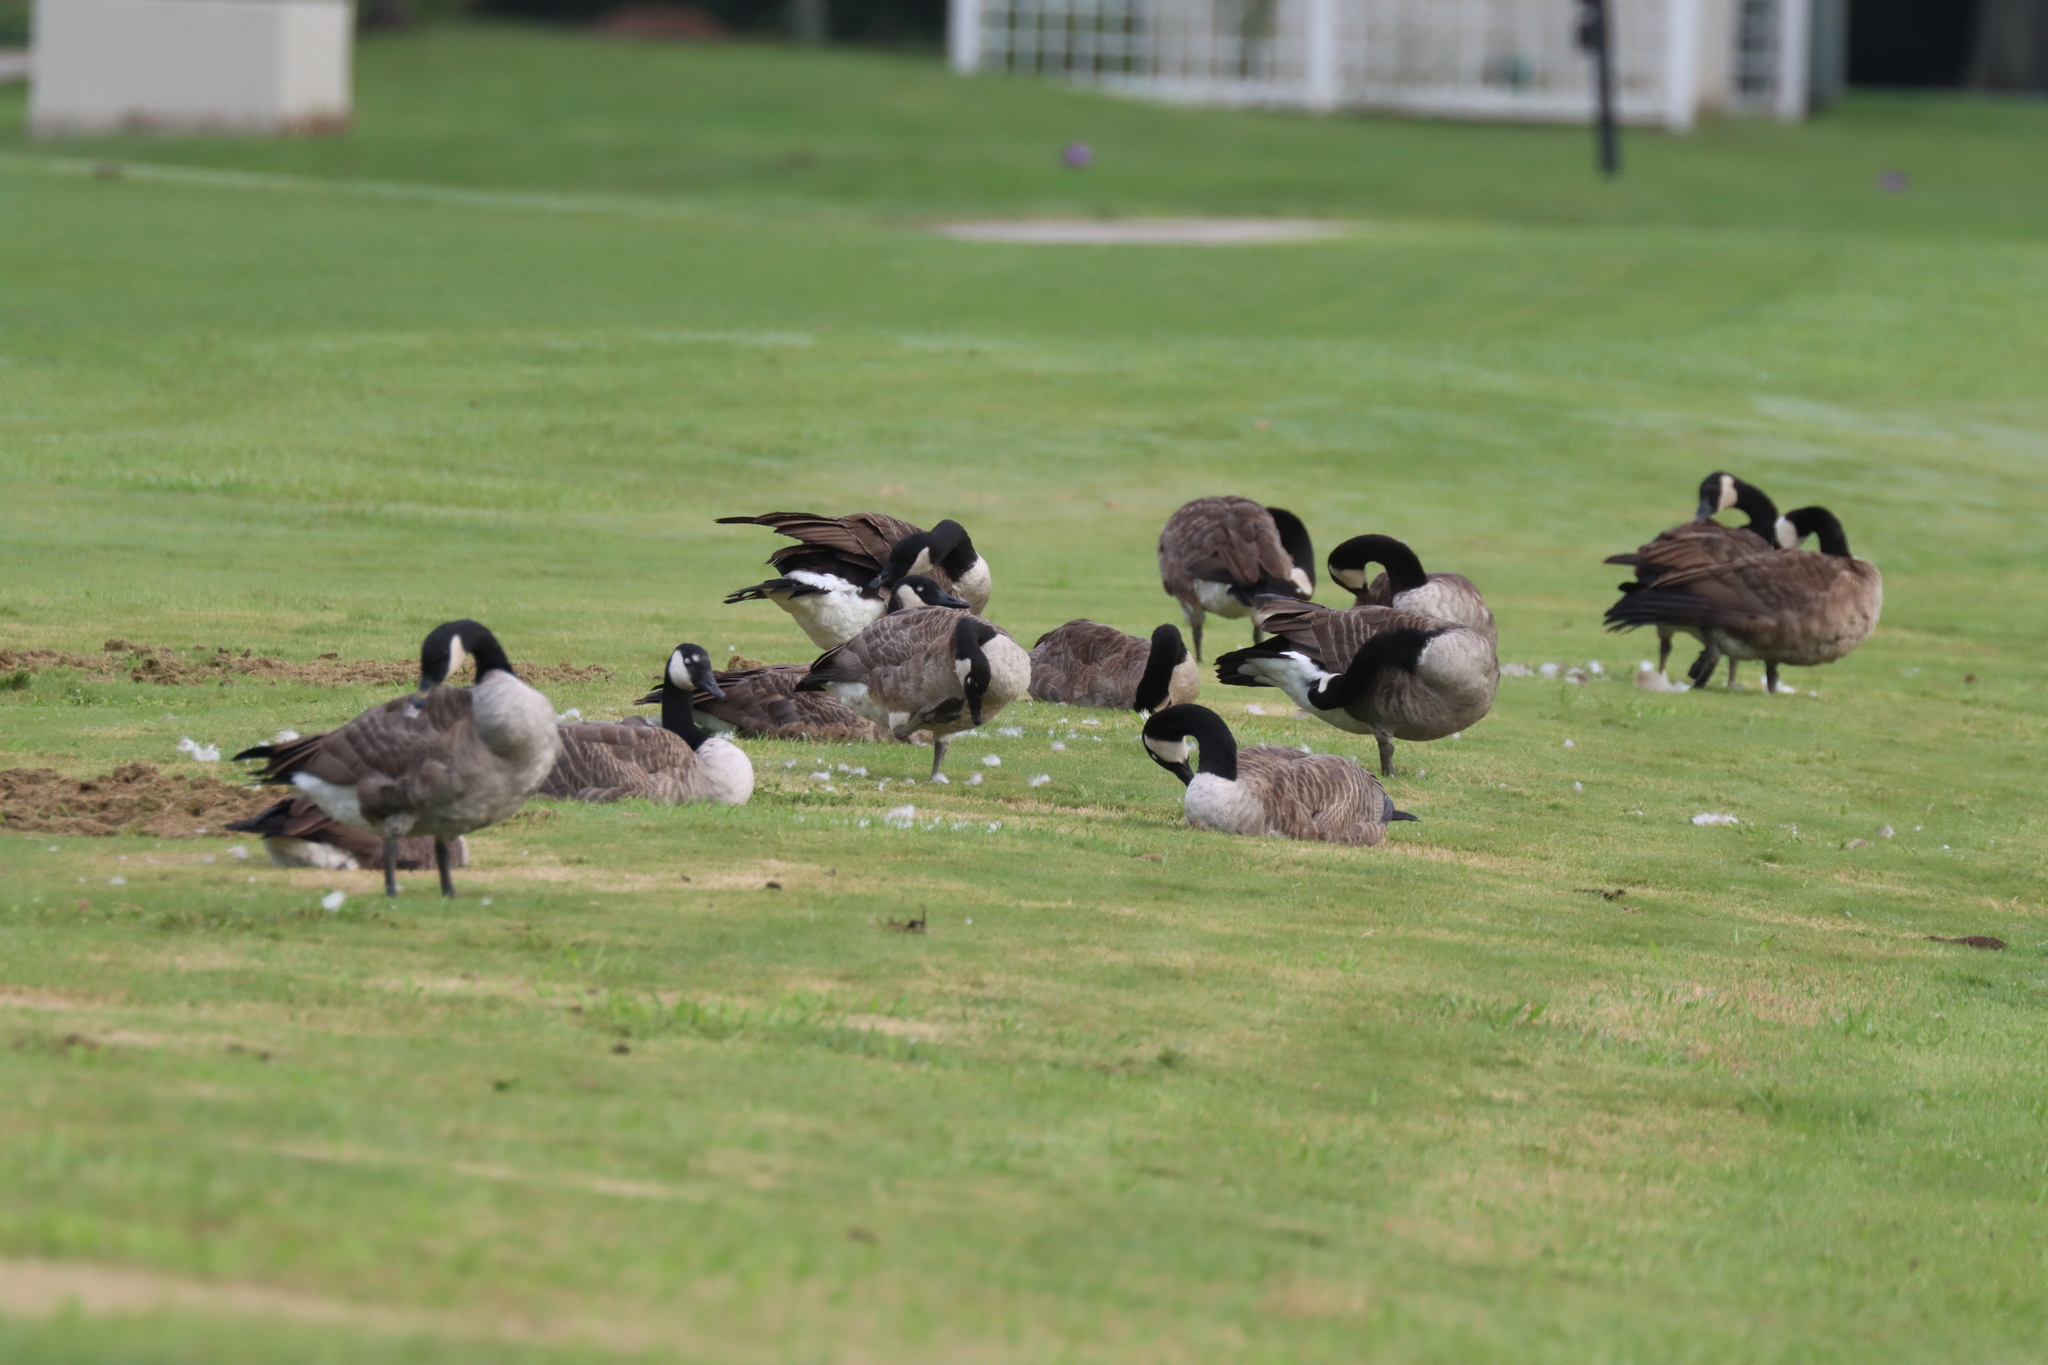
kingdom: Animalia
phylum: Chordata
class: Aves
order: Anseriformes
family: Anatidae
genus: Branta
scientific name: Branta canadensis
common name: Canada goose
